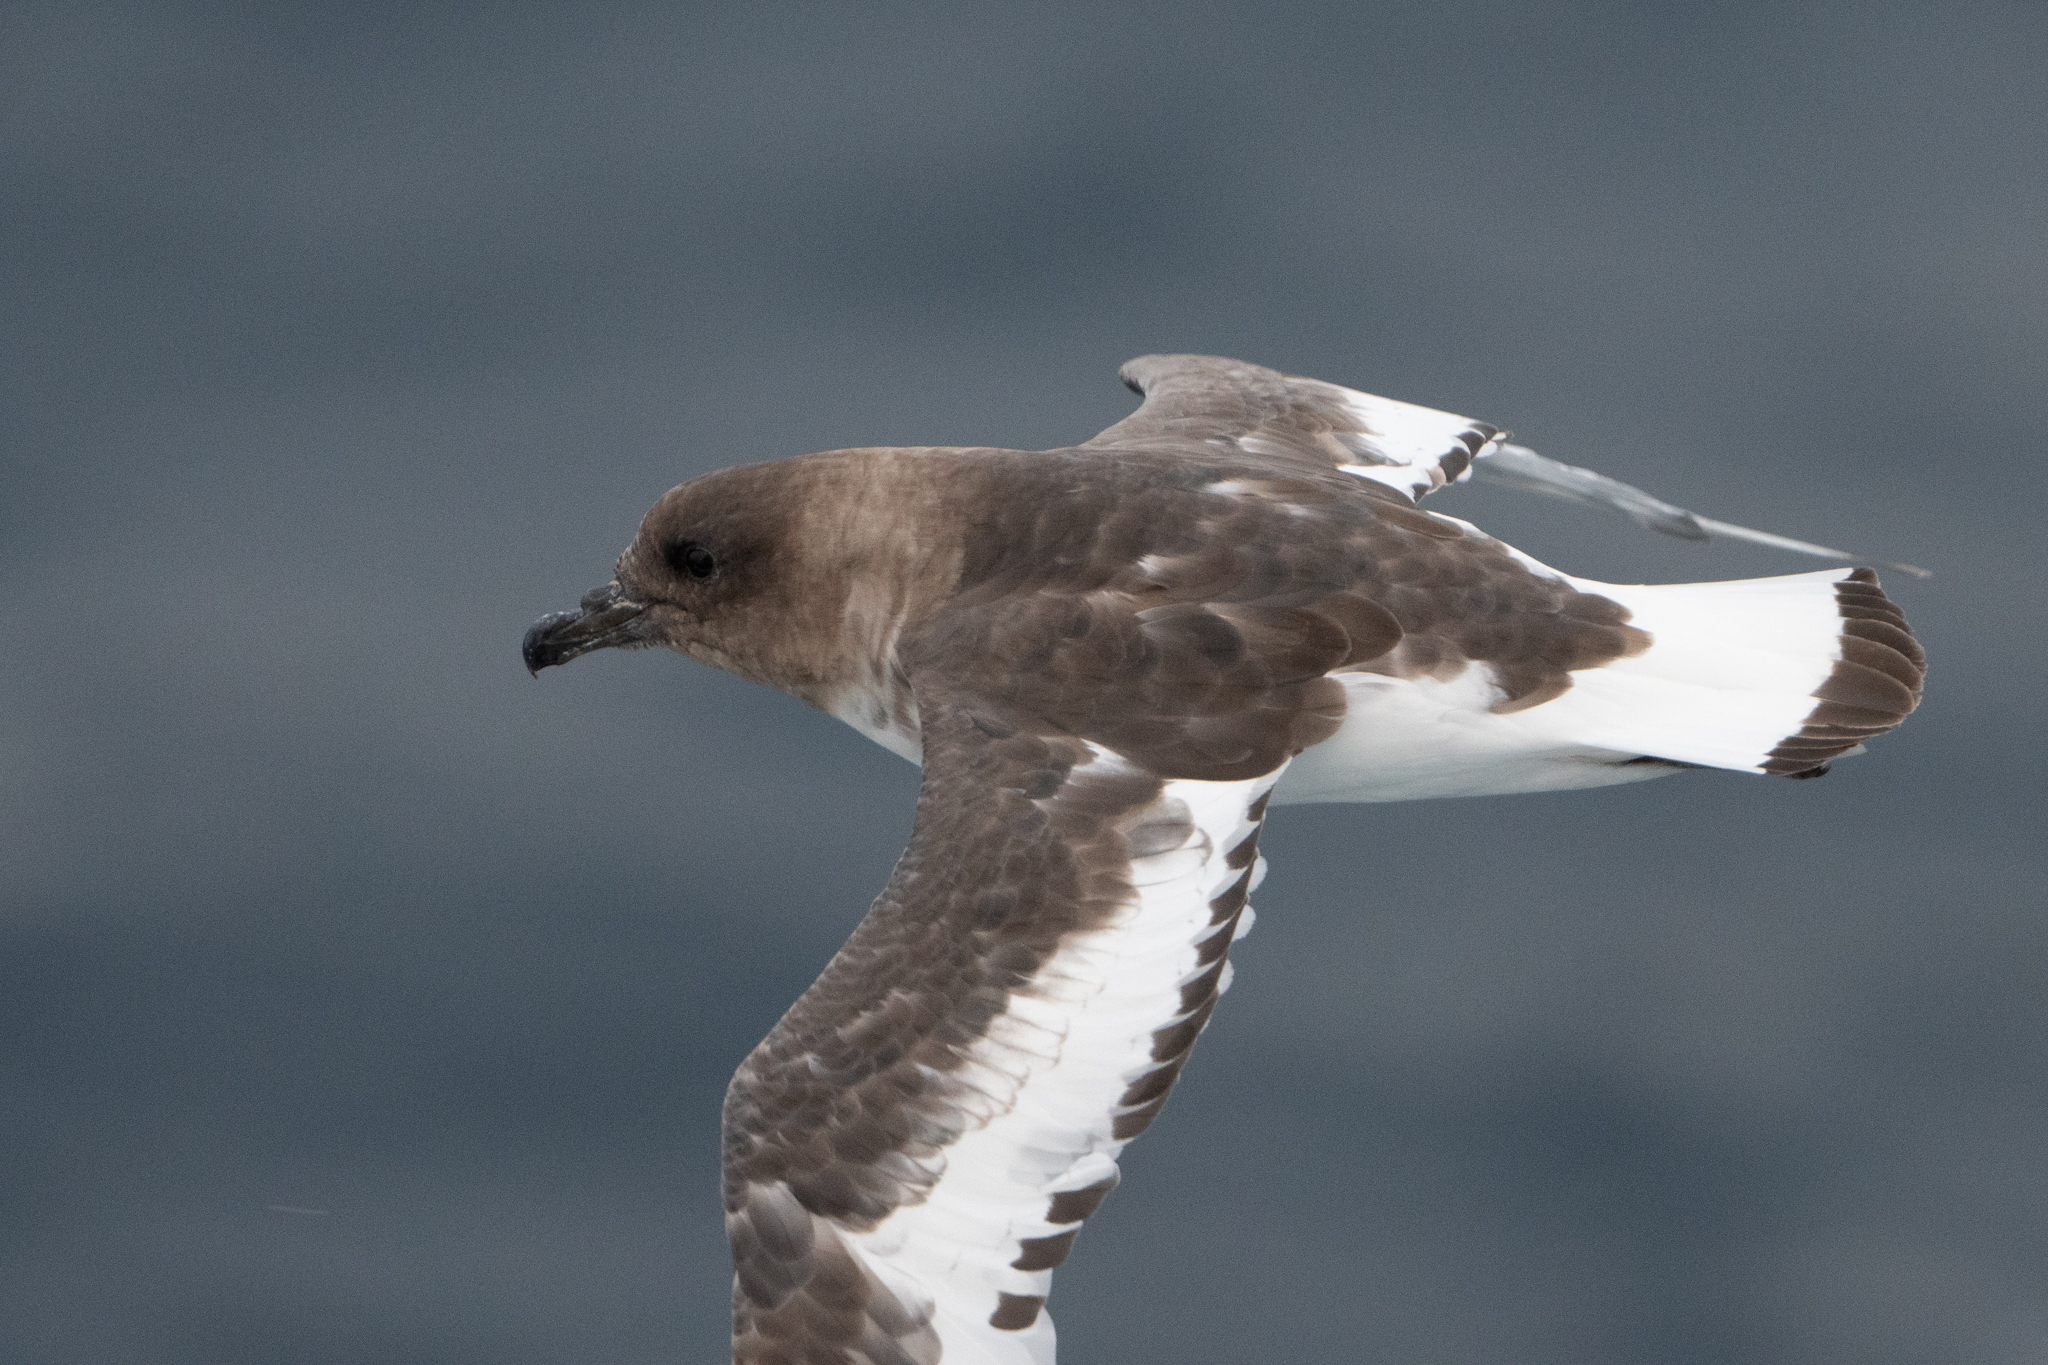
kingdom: Animalia
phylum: Chordata
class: Aves
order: Procellariiformes
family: Procellariidae
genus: Thalassoica
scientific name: Thalassoica antarctica
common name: Antarctic petrel
